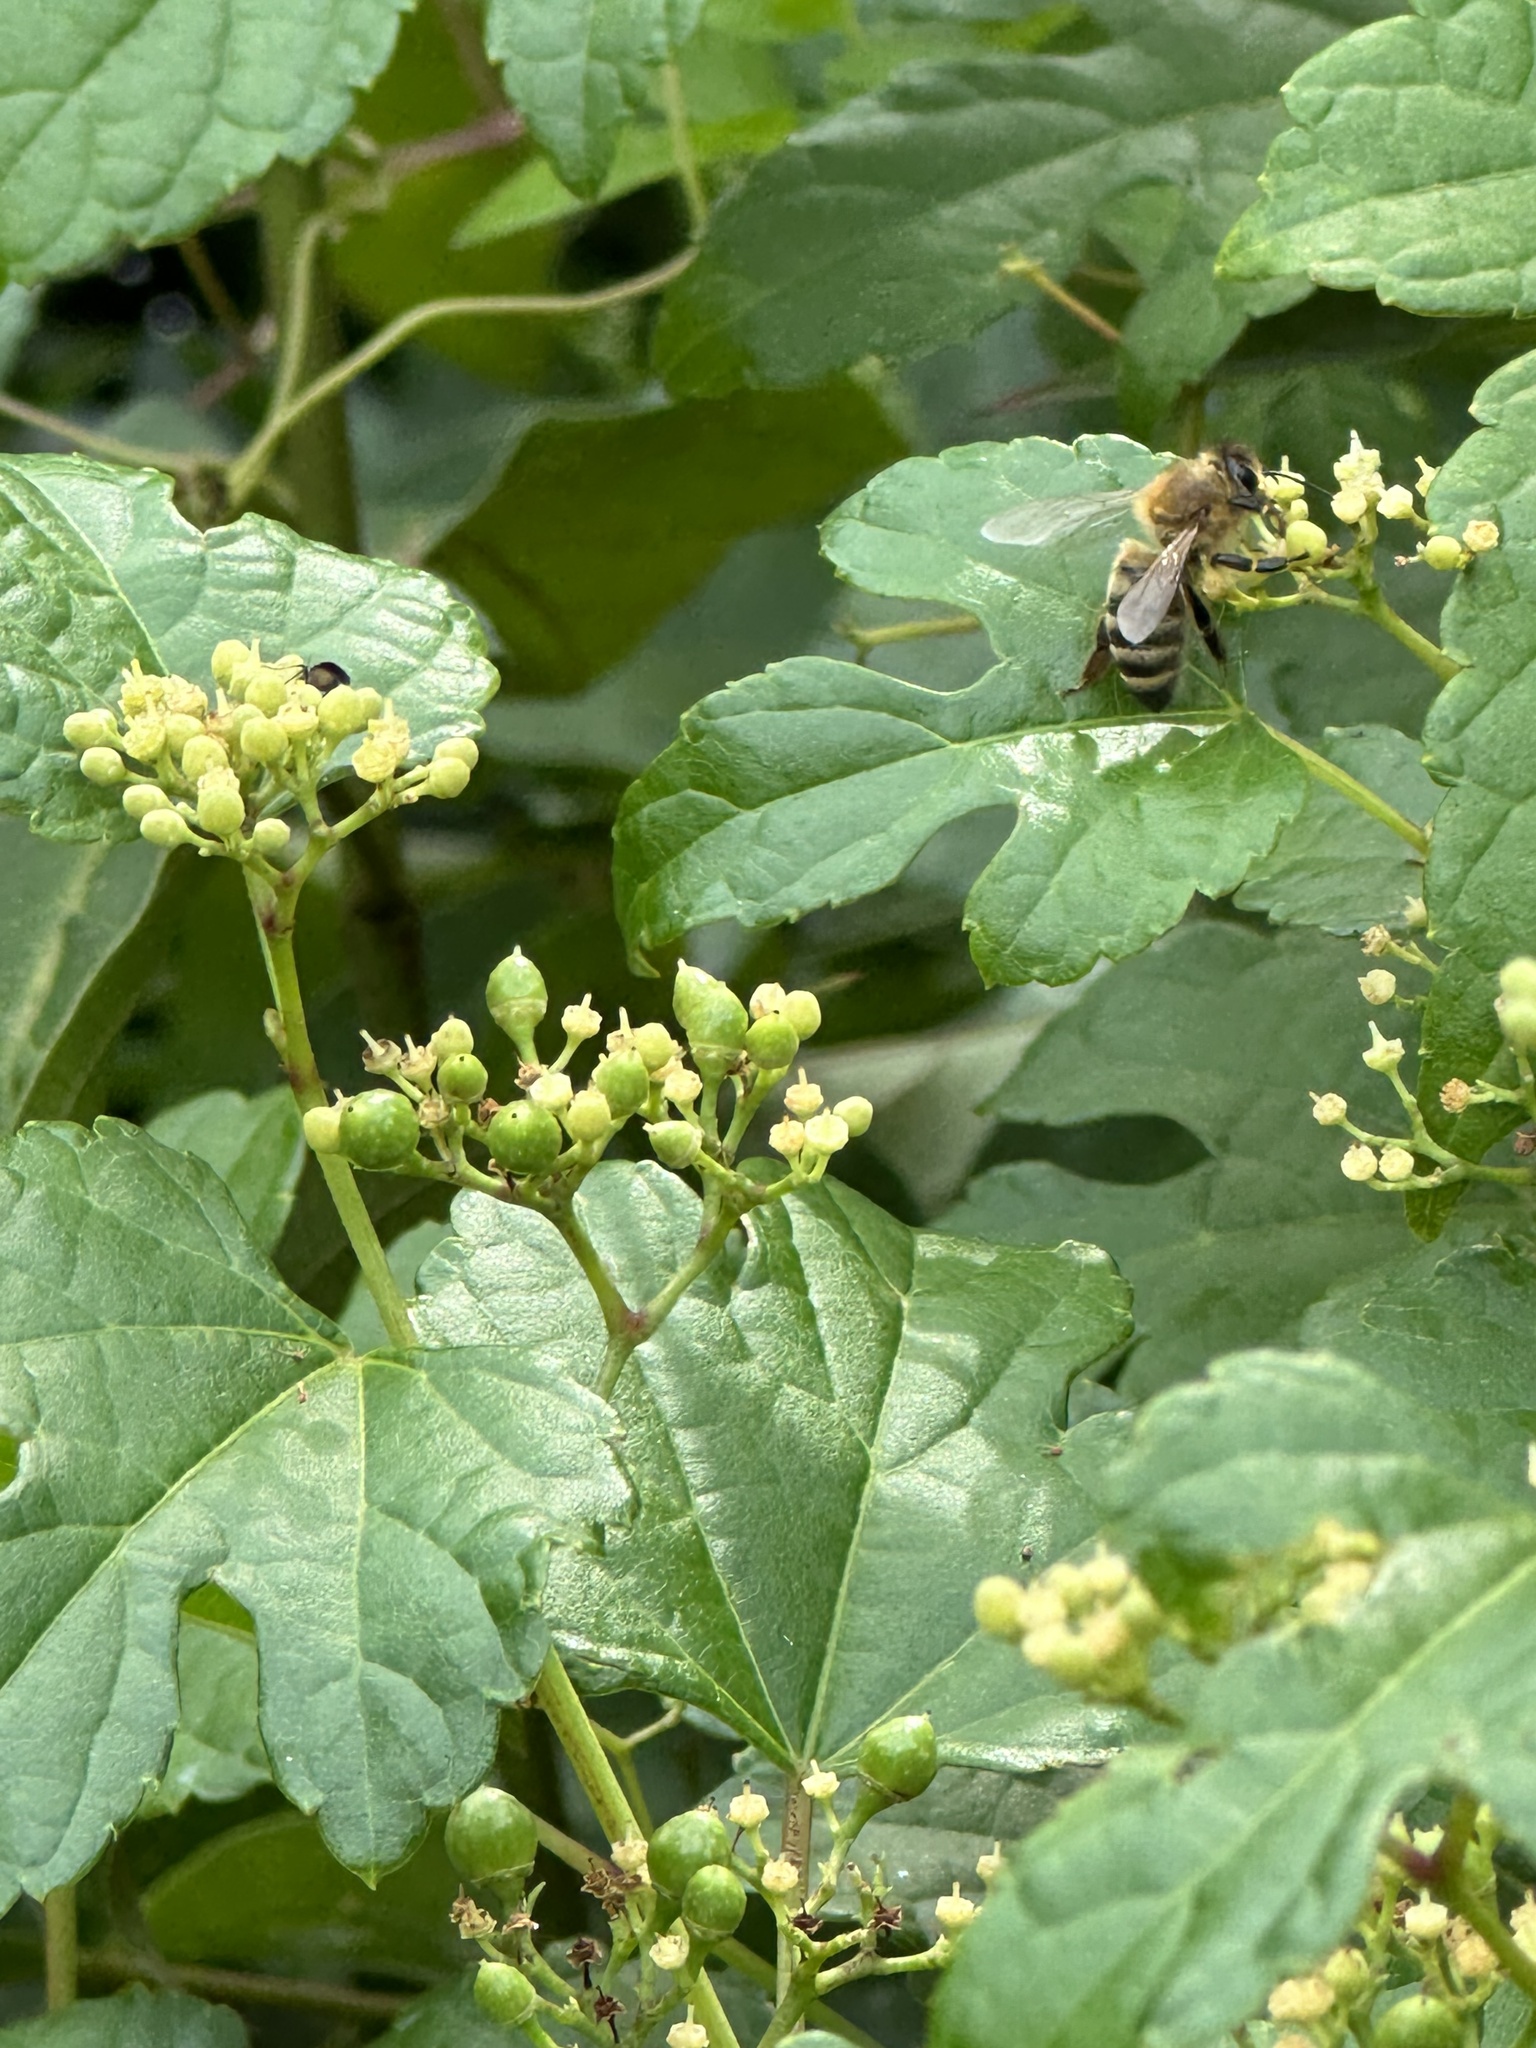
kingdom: Animalia
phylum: Arthropoda
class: Insecta
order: Hymenoptera
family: Apidae
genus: Apis
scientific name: Apis mellifera
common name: Honey bee
